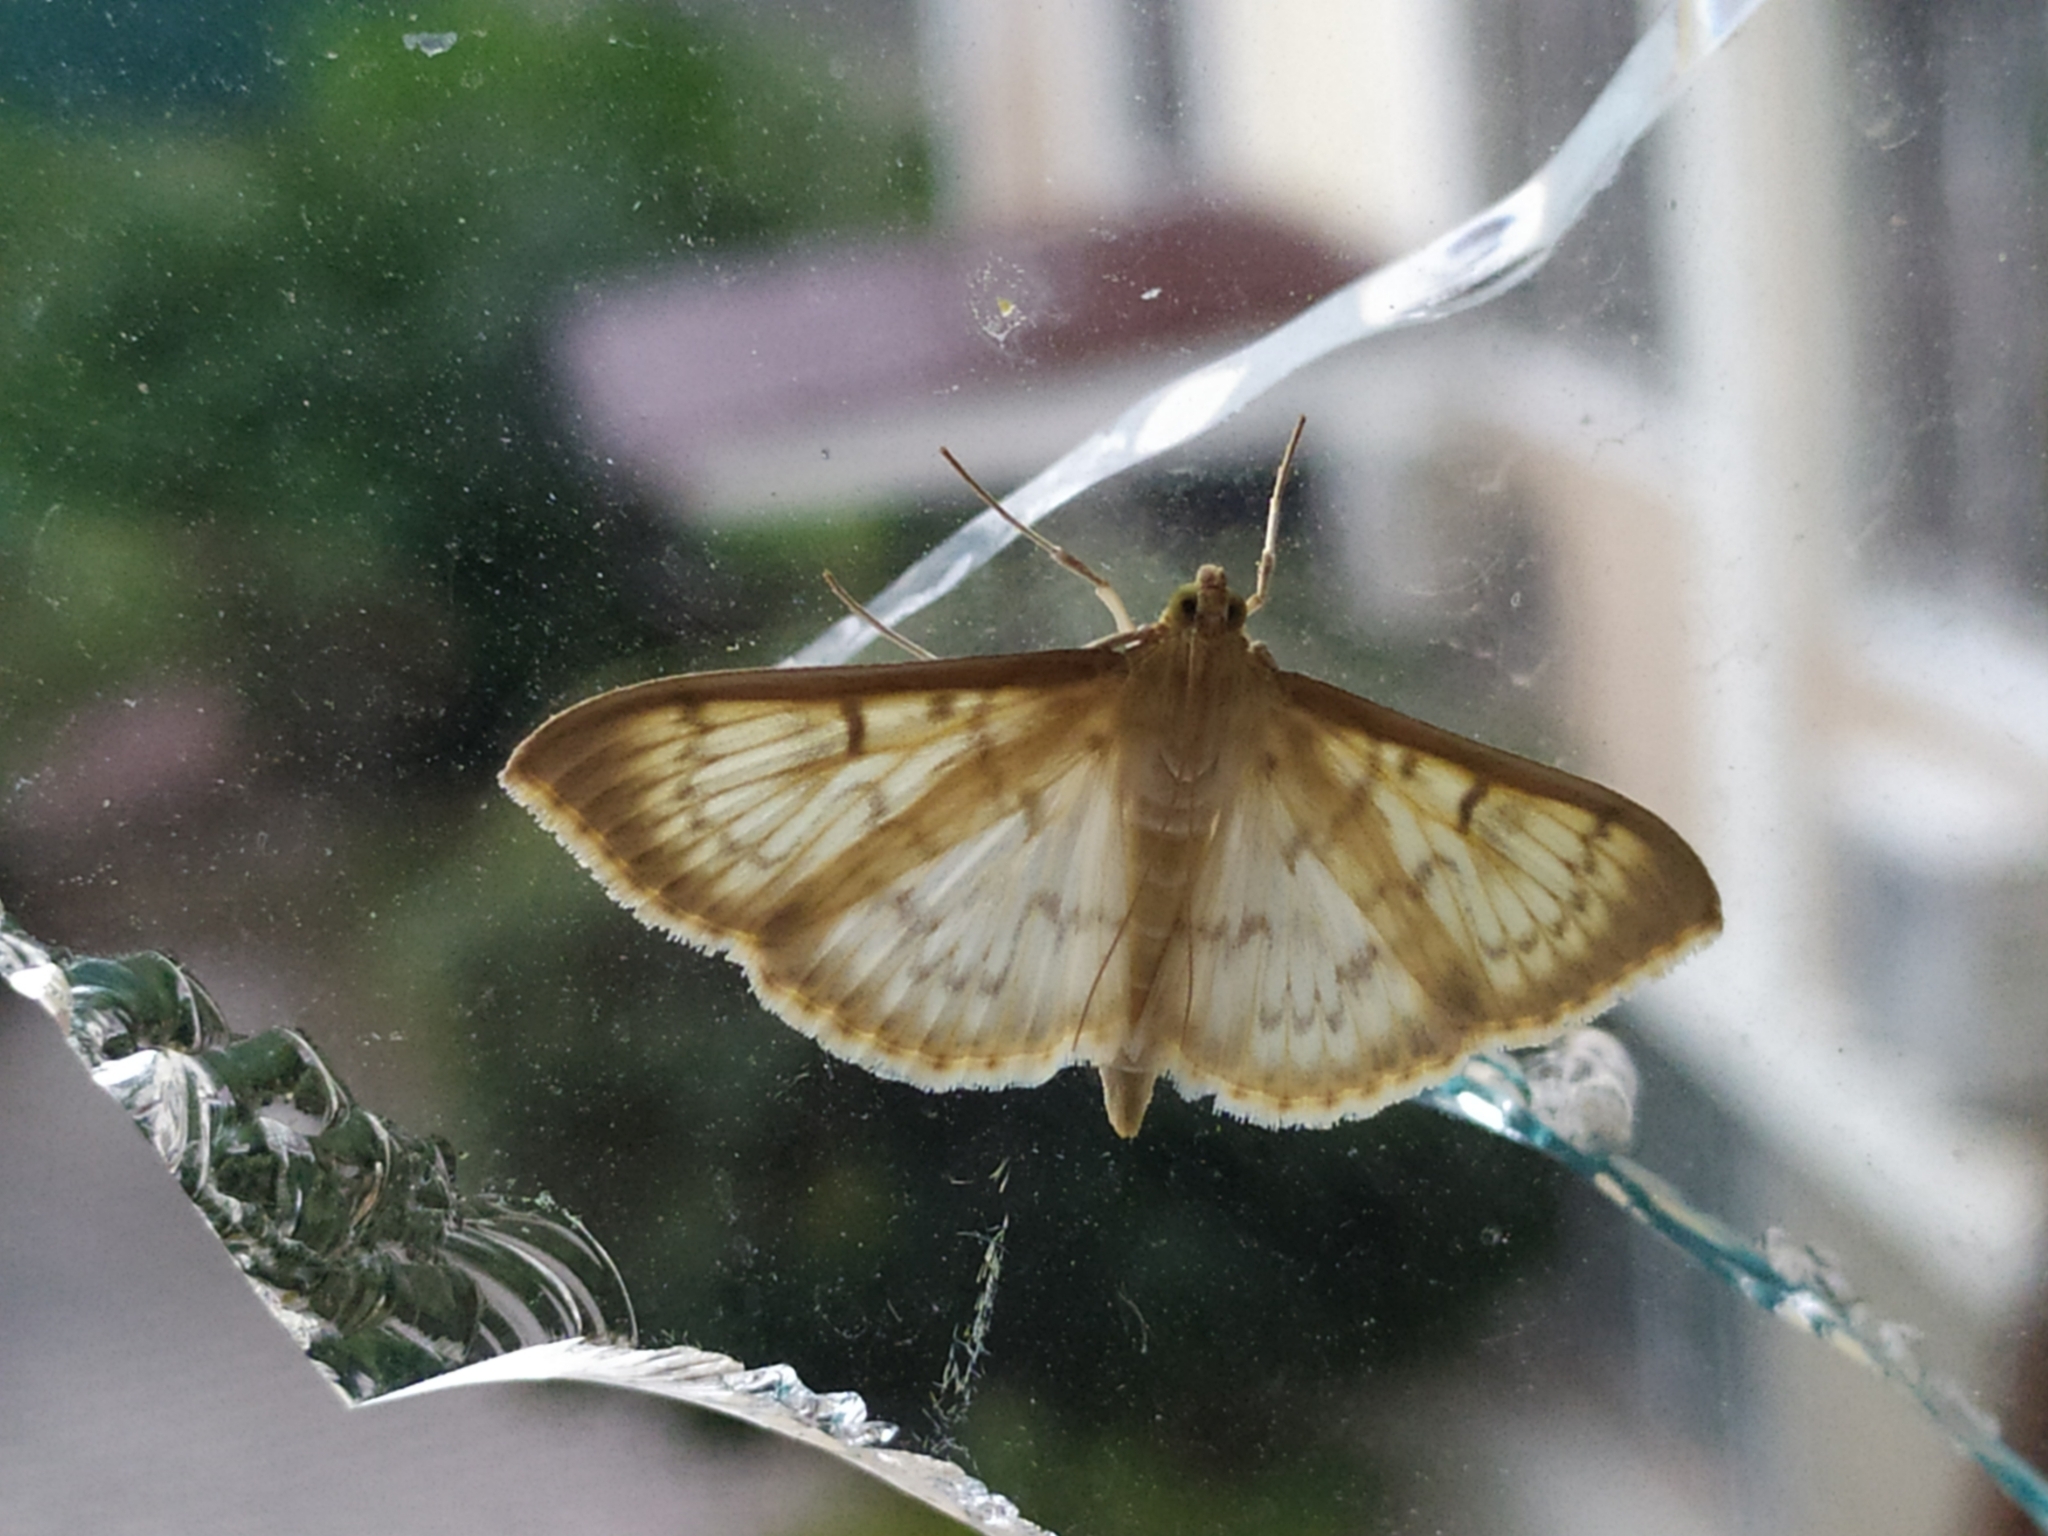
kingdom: Animalia
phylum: Arthropoda
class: Insecta
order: Lepidoptera
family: Crambidae
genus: Patania
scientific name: Patania ruralis
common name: Mother of pearl
